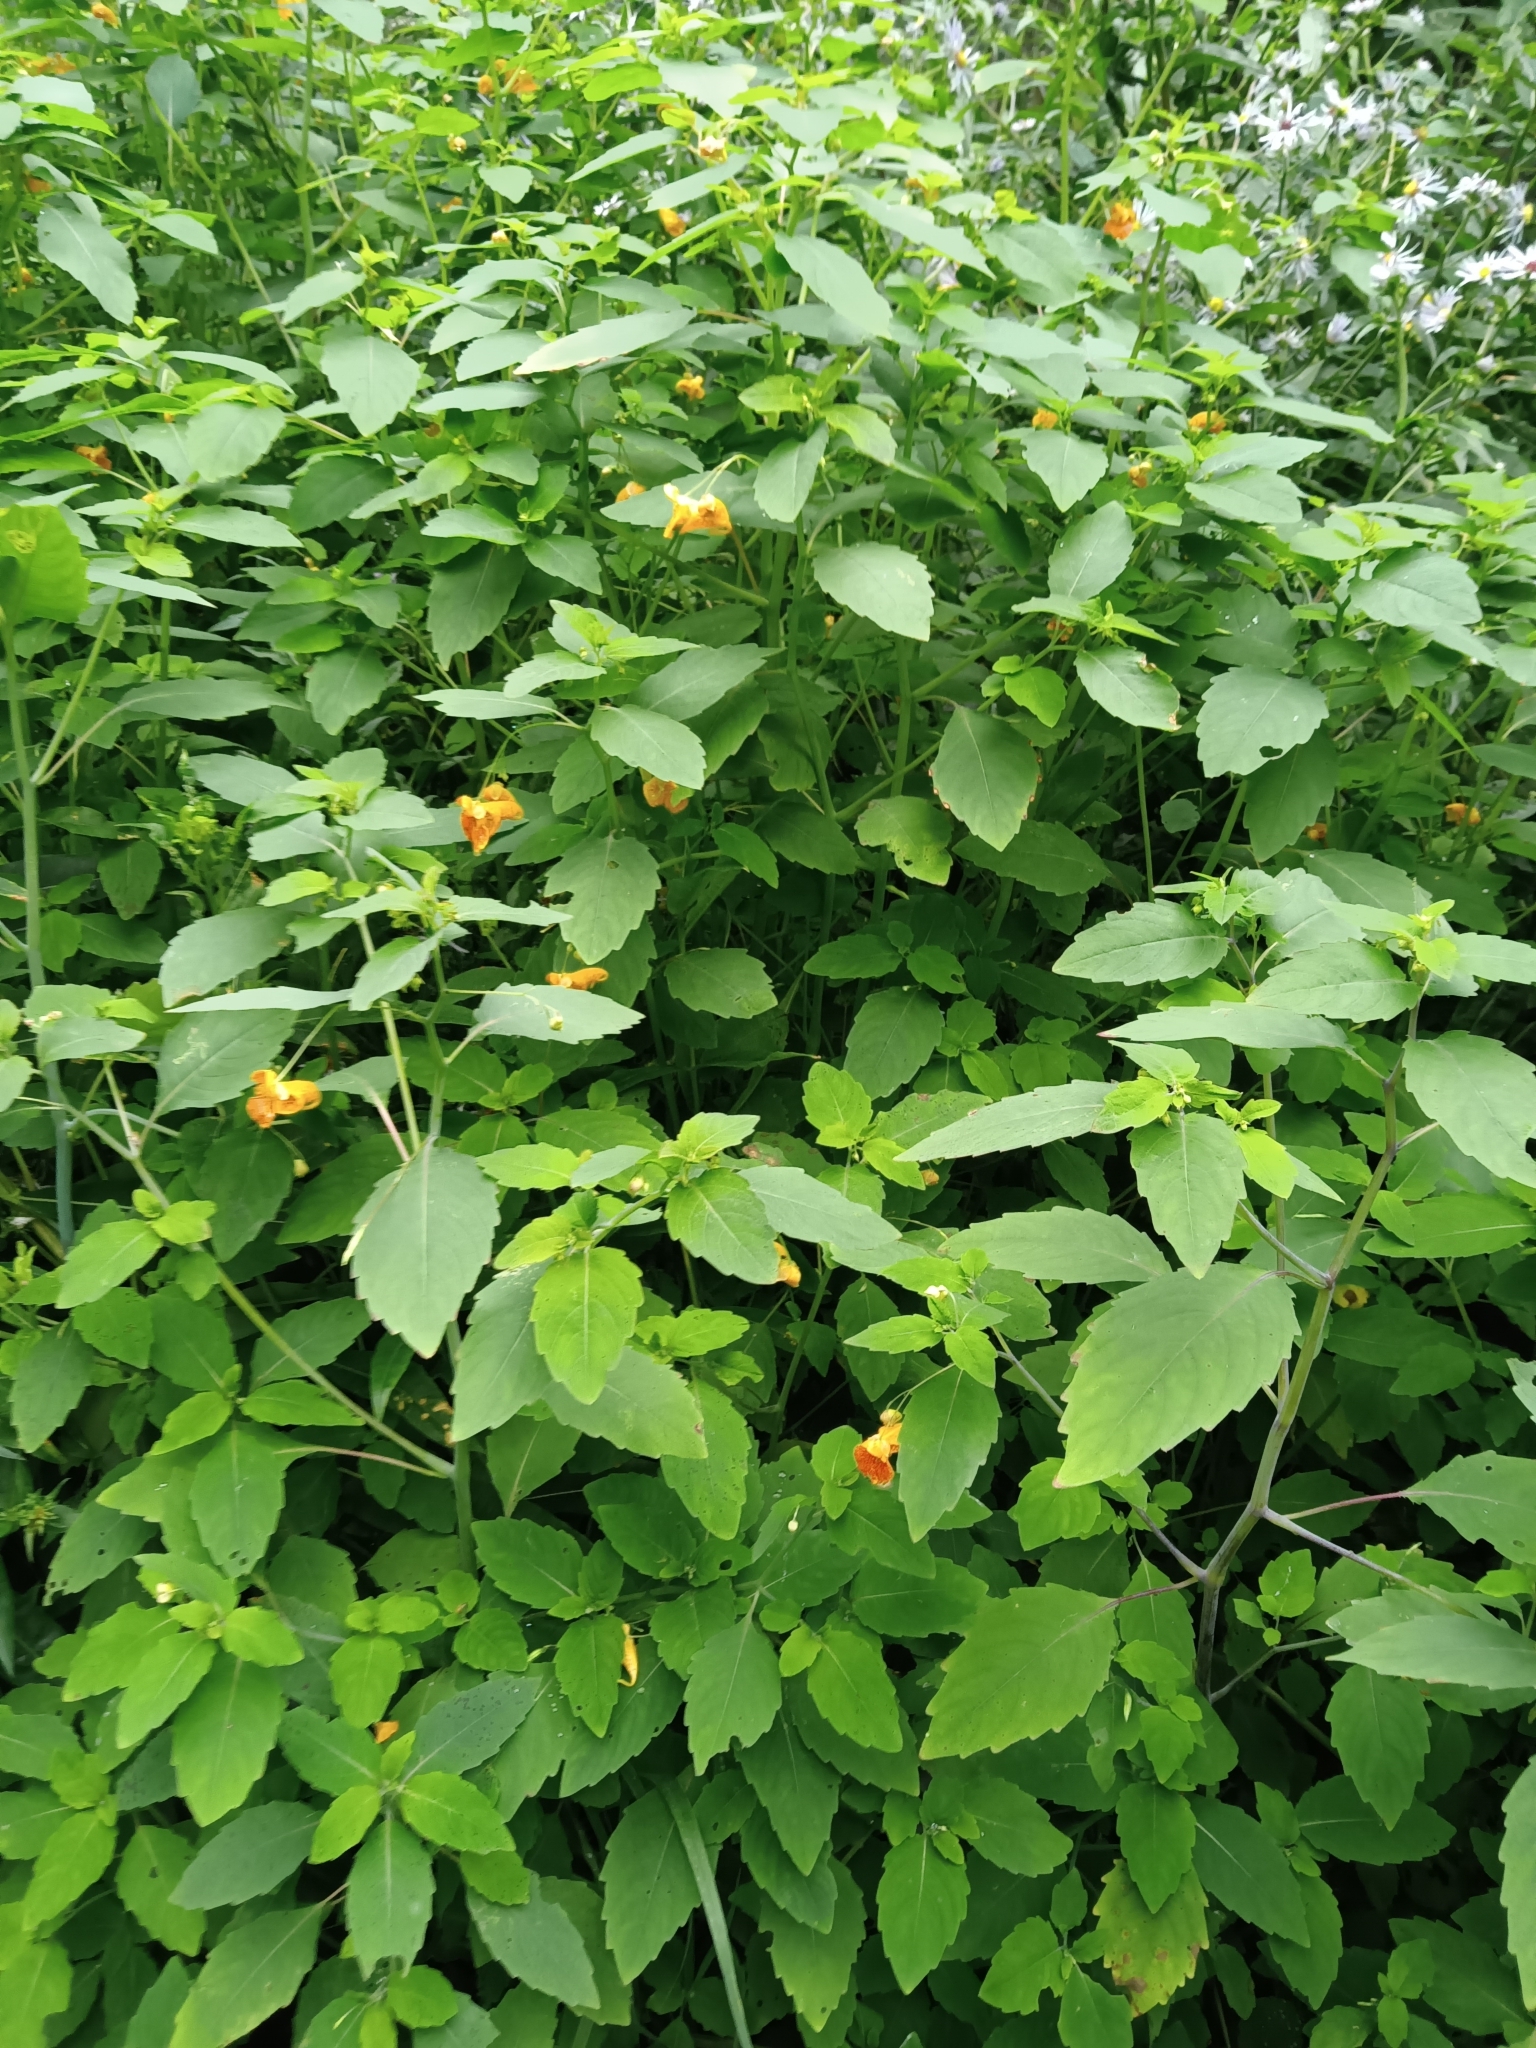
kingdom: Plantae
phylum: Tracheophyta
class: Magnoliopsida
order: Ericales
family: Balsaminaceae
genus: Impatiens
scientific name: Impatiens capensis
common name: Orange balsam
